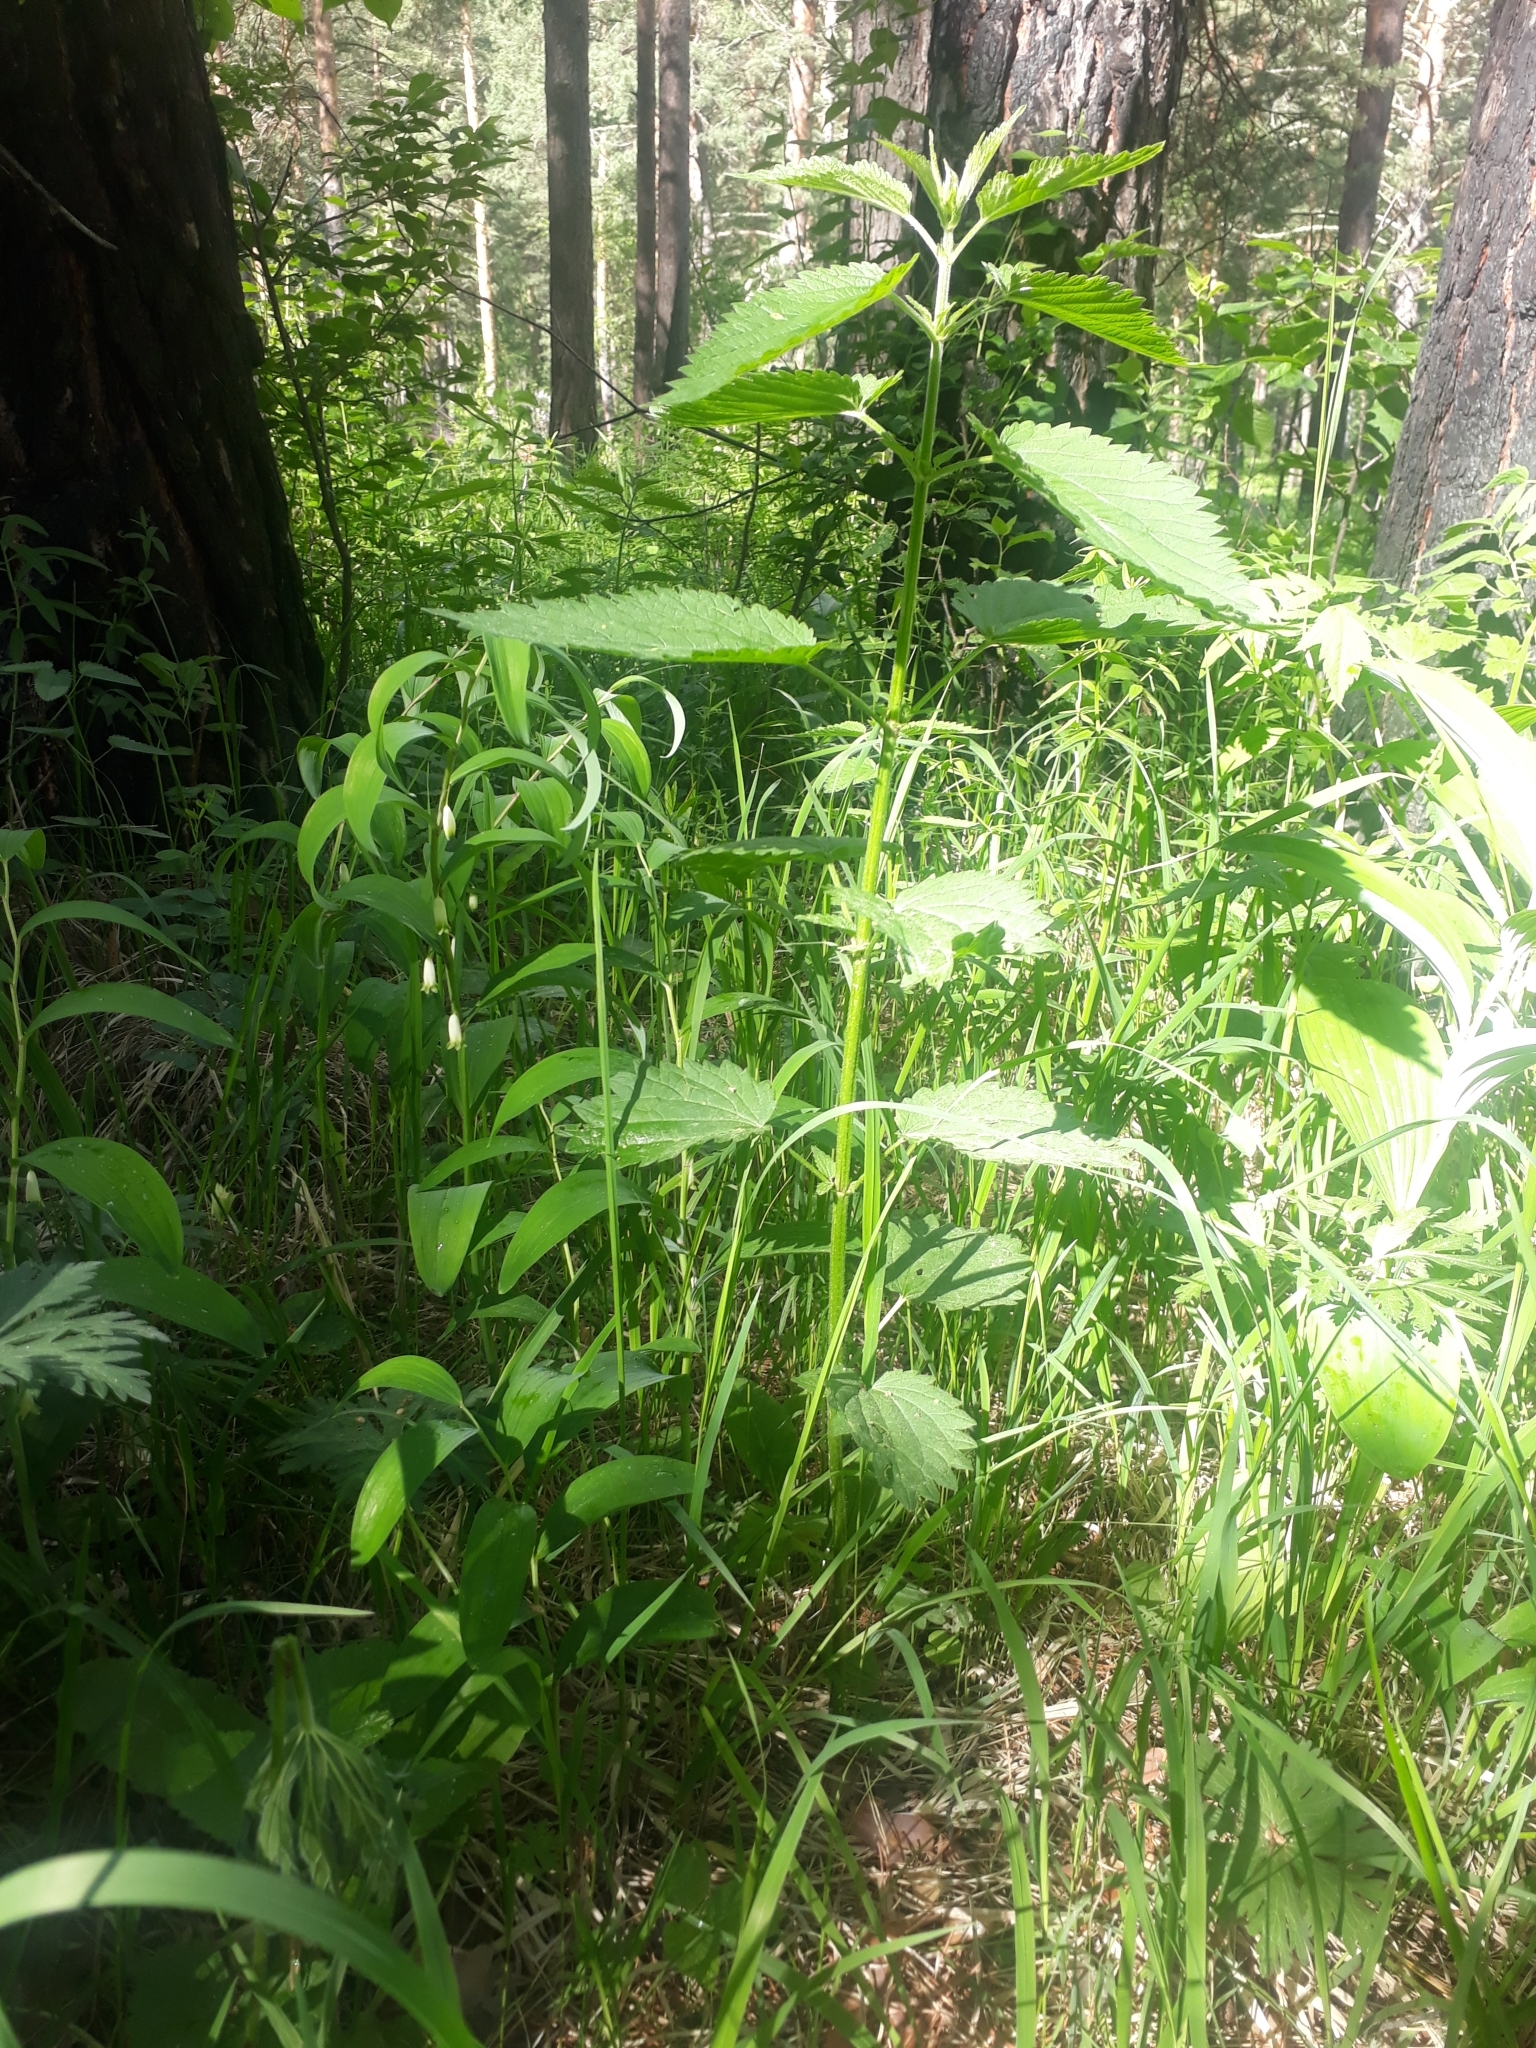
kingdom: Plantae
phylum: Tracheophyta
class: Magnoliopsida
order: Rosales
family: Urticaceae
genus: Urtica
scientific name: Urtica dioica
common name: Common nettle
